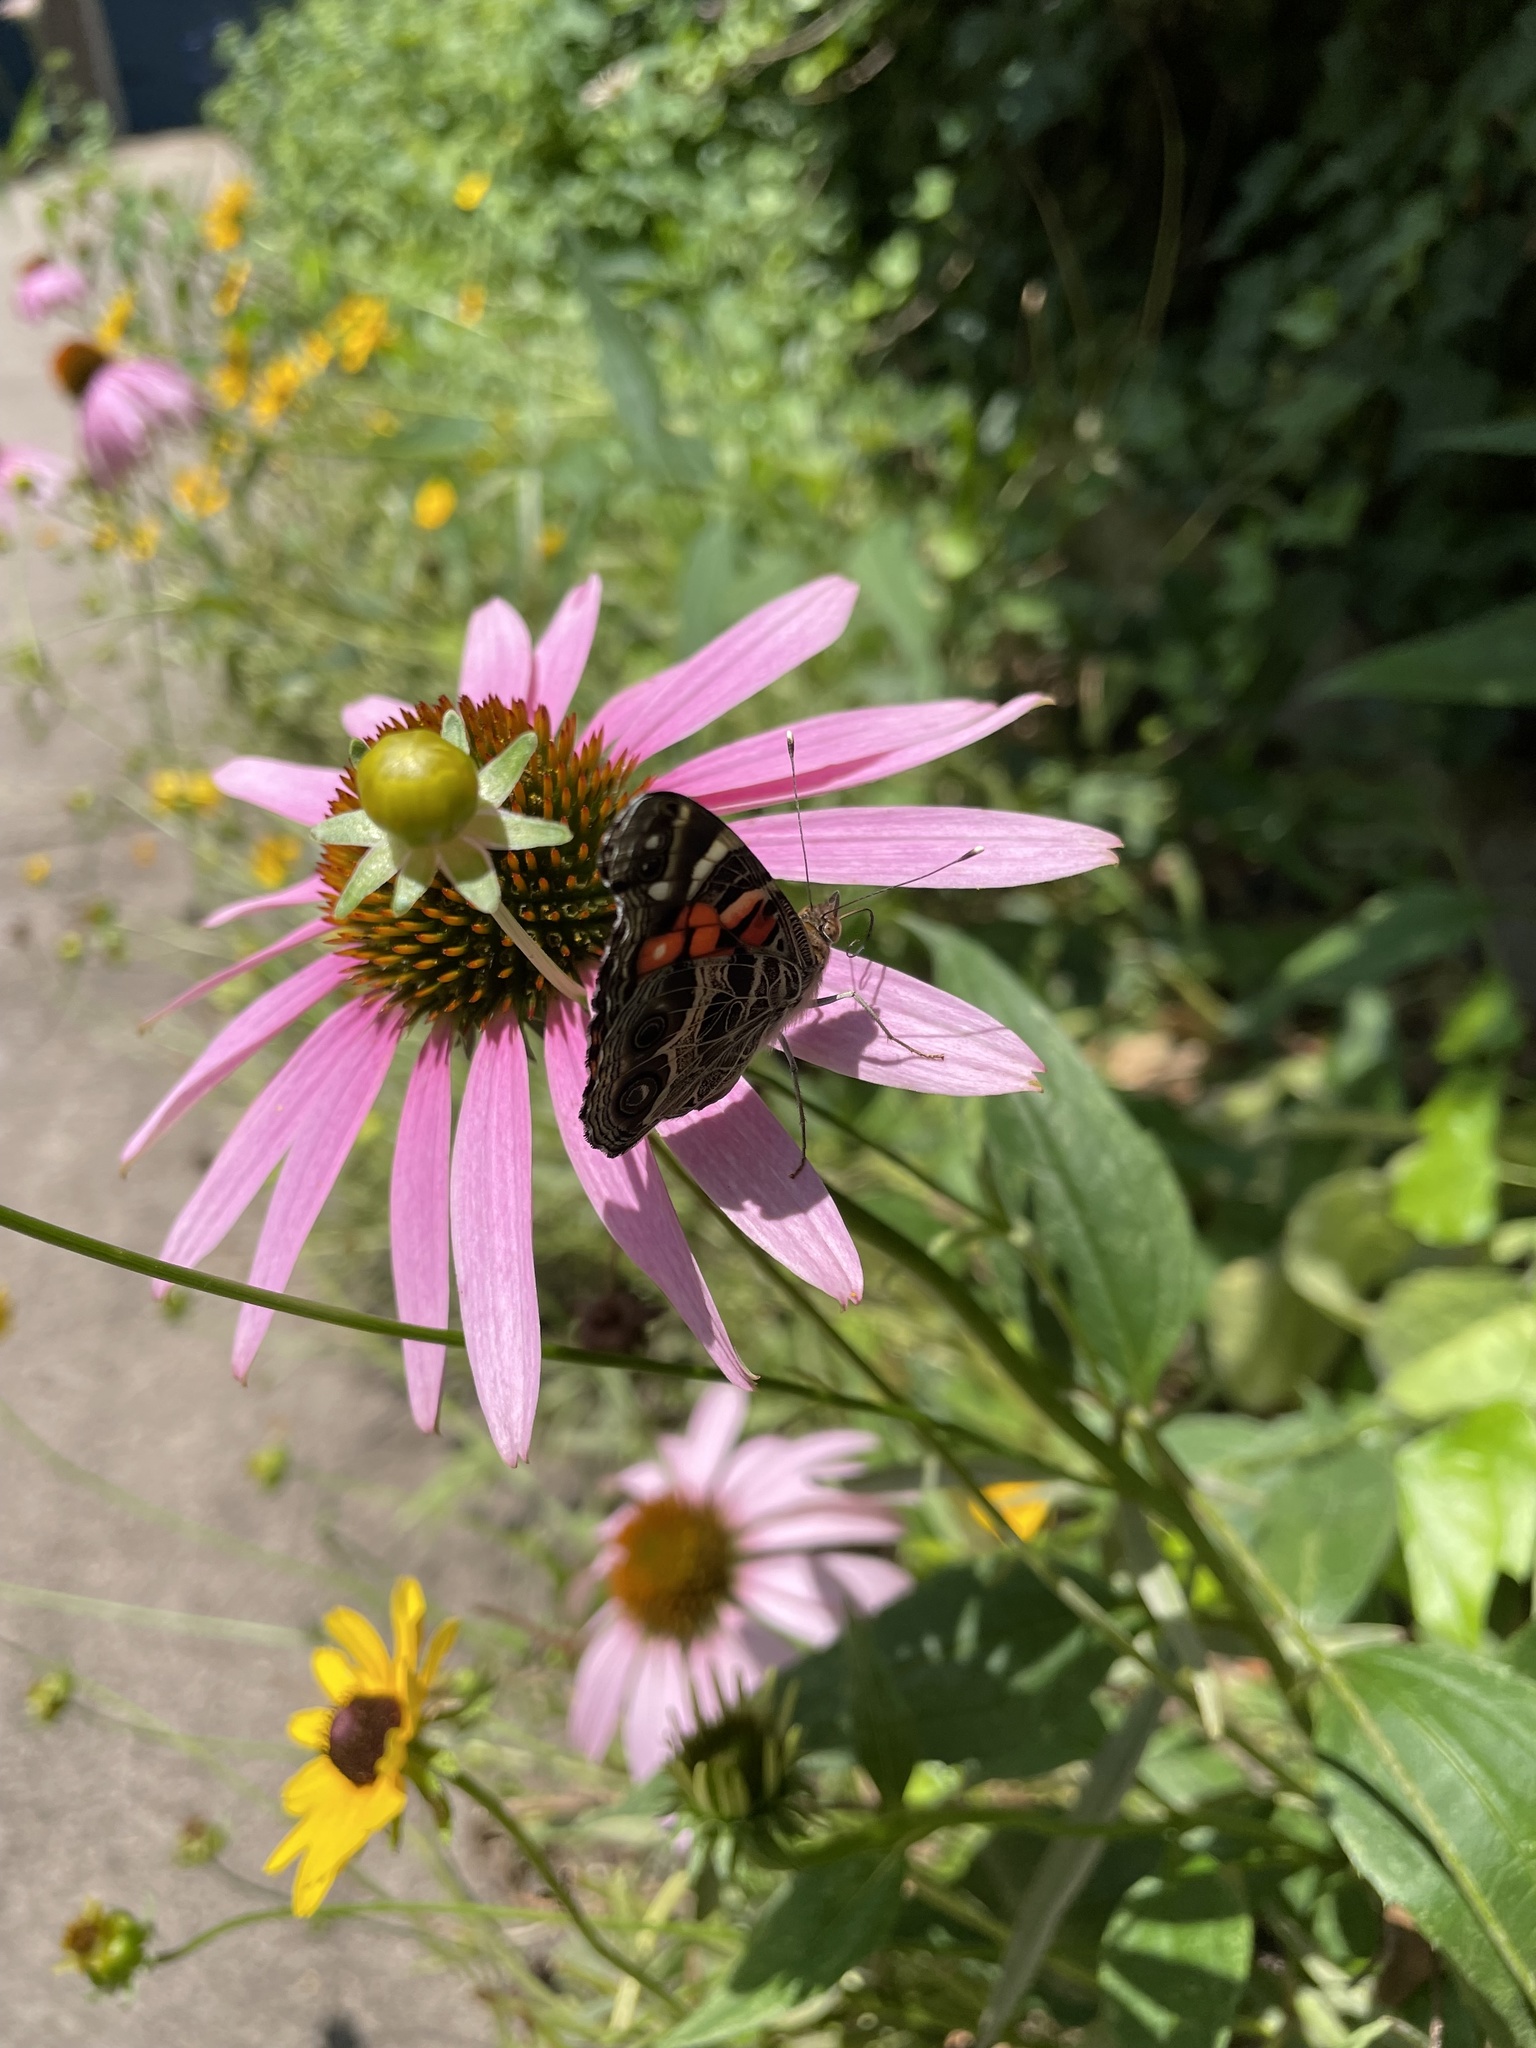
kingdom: Animalia
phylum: Arthropoda
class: Insecta
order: Lepidoptera
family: Nymphalidae
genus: Vanessa
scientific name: Vanessa virginiensis
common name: American lady
